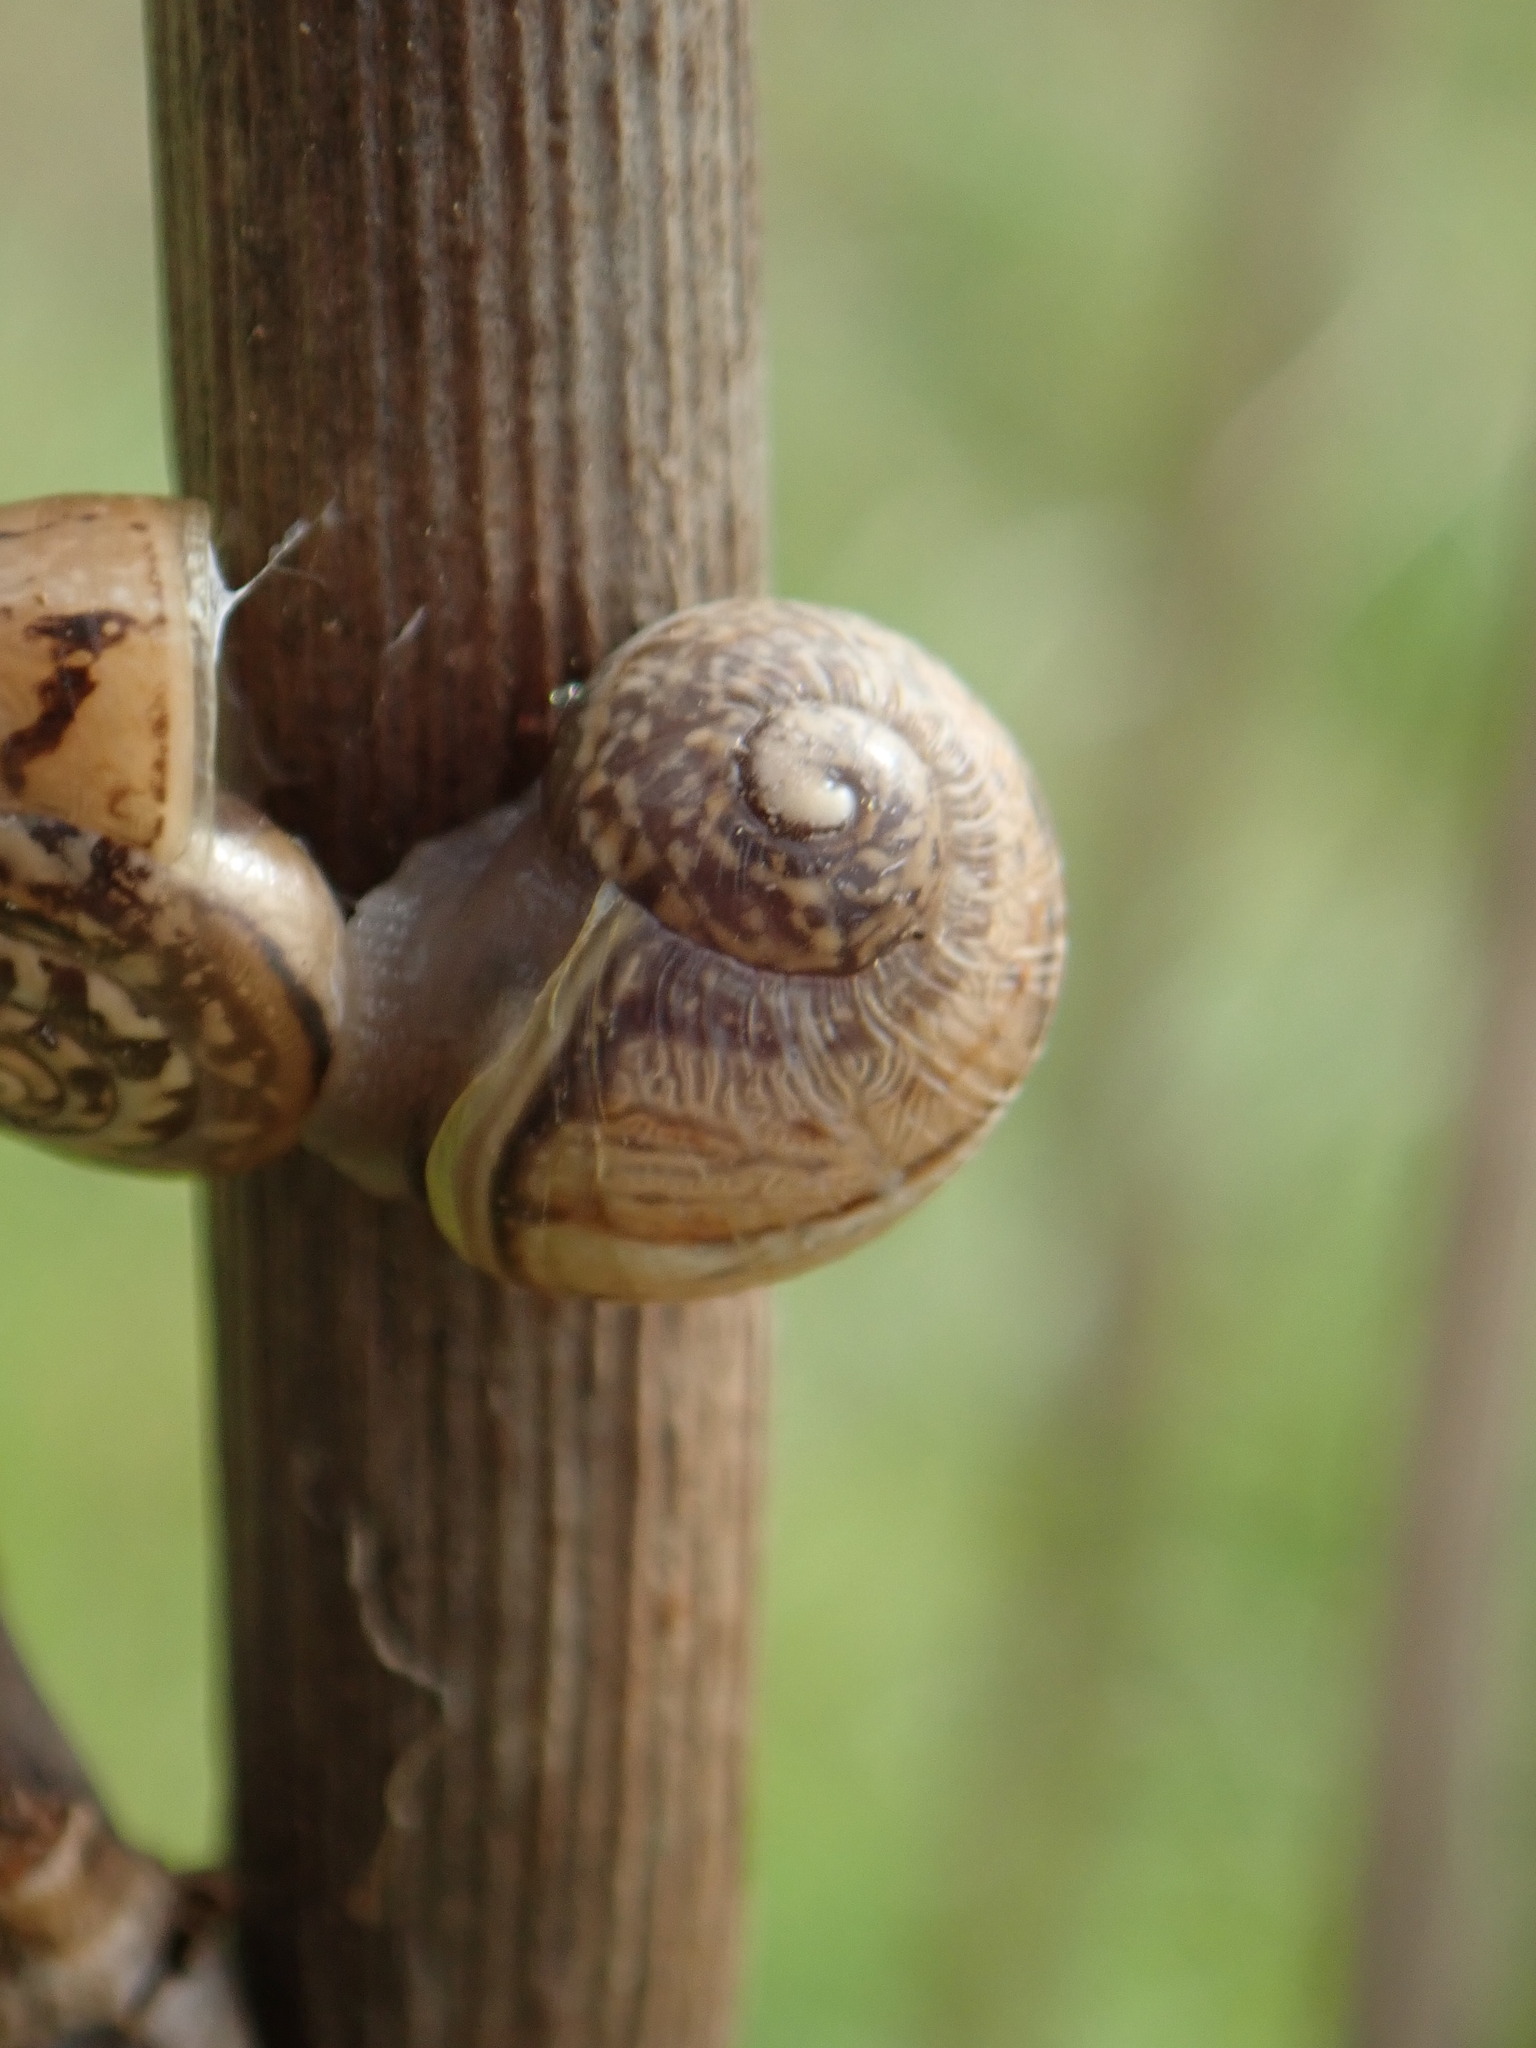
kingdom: Animalia
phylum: Mollusca
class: Gastropoda
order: Stylommatophora
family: Helicidae
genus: Cornu
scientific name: Cornu aspersum
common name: Brown garden snail
